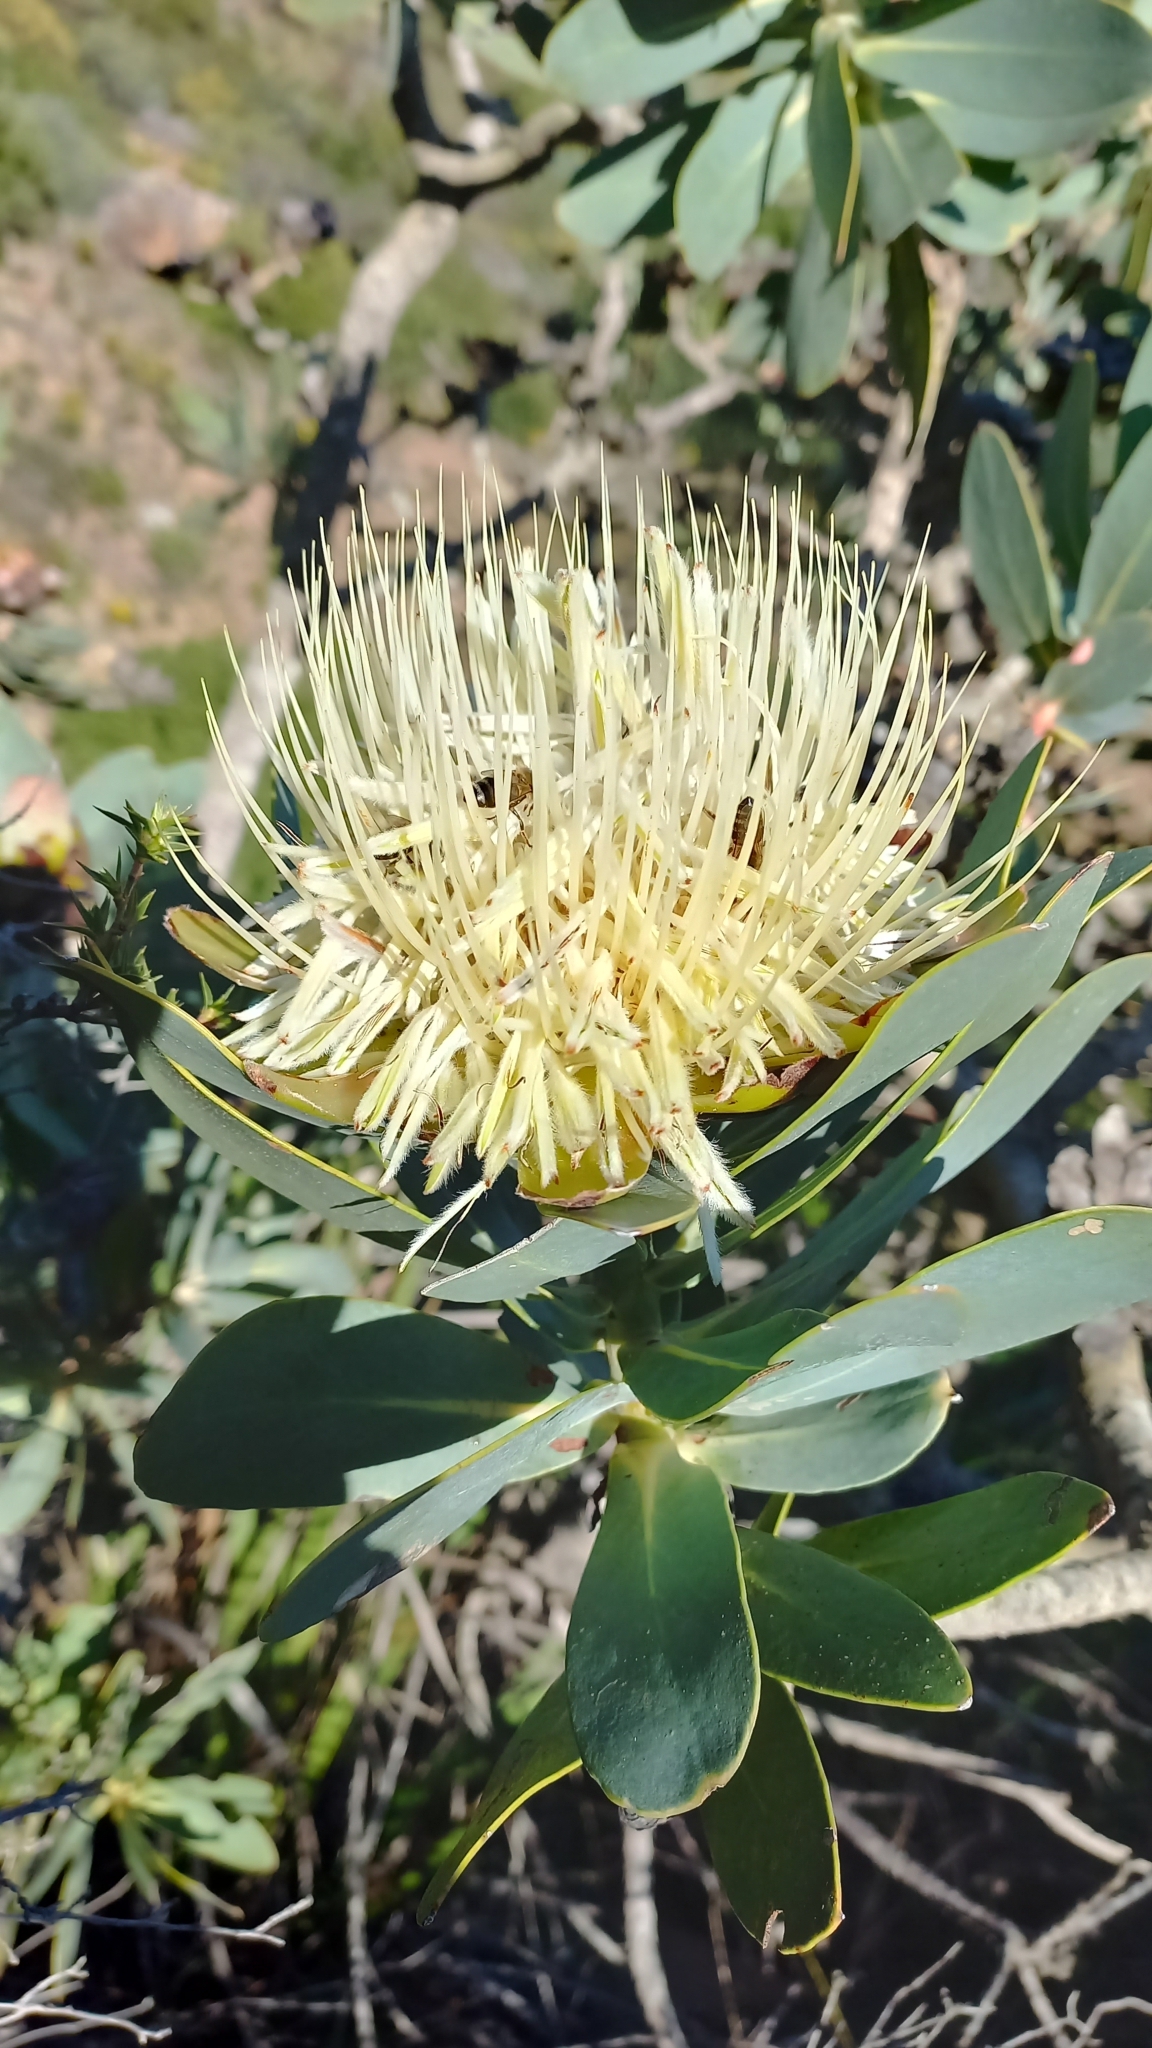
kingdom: Plantae
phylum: Tracheophyta
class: Magnoliopsida
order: Proteales
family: Proteaceae
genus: Protea
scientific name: Protea nitida
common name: Tree protea
